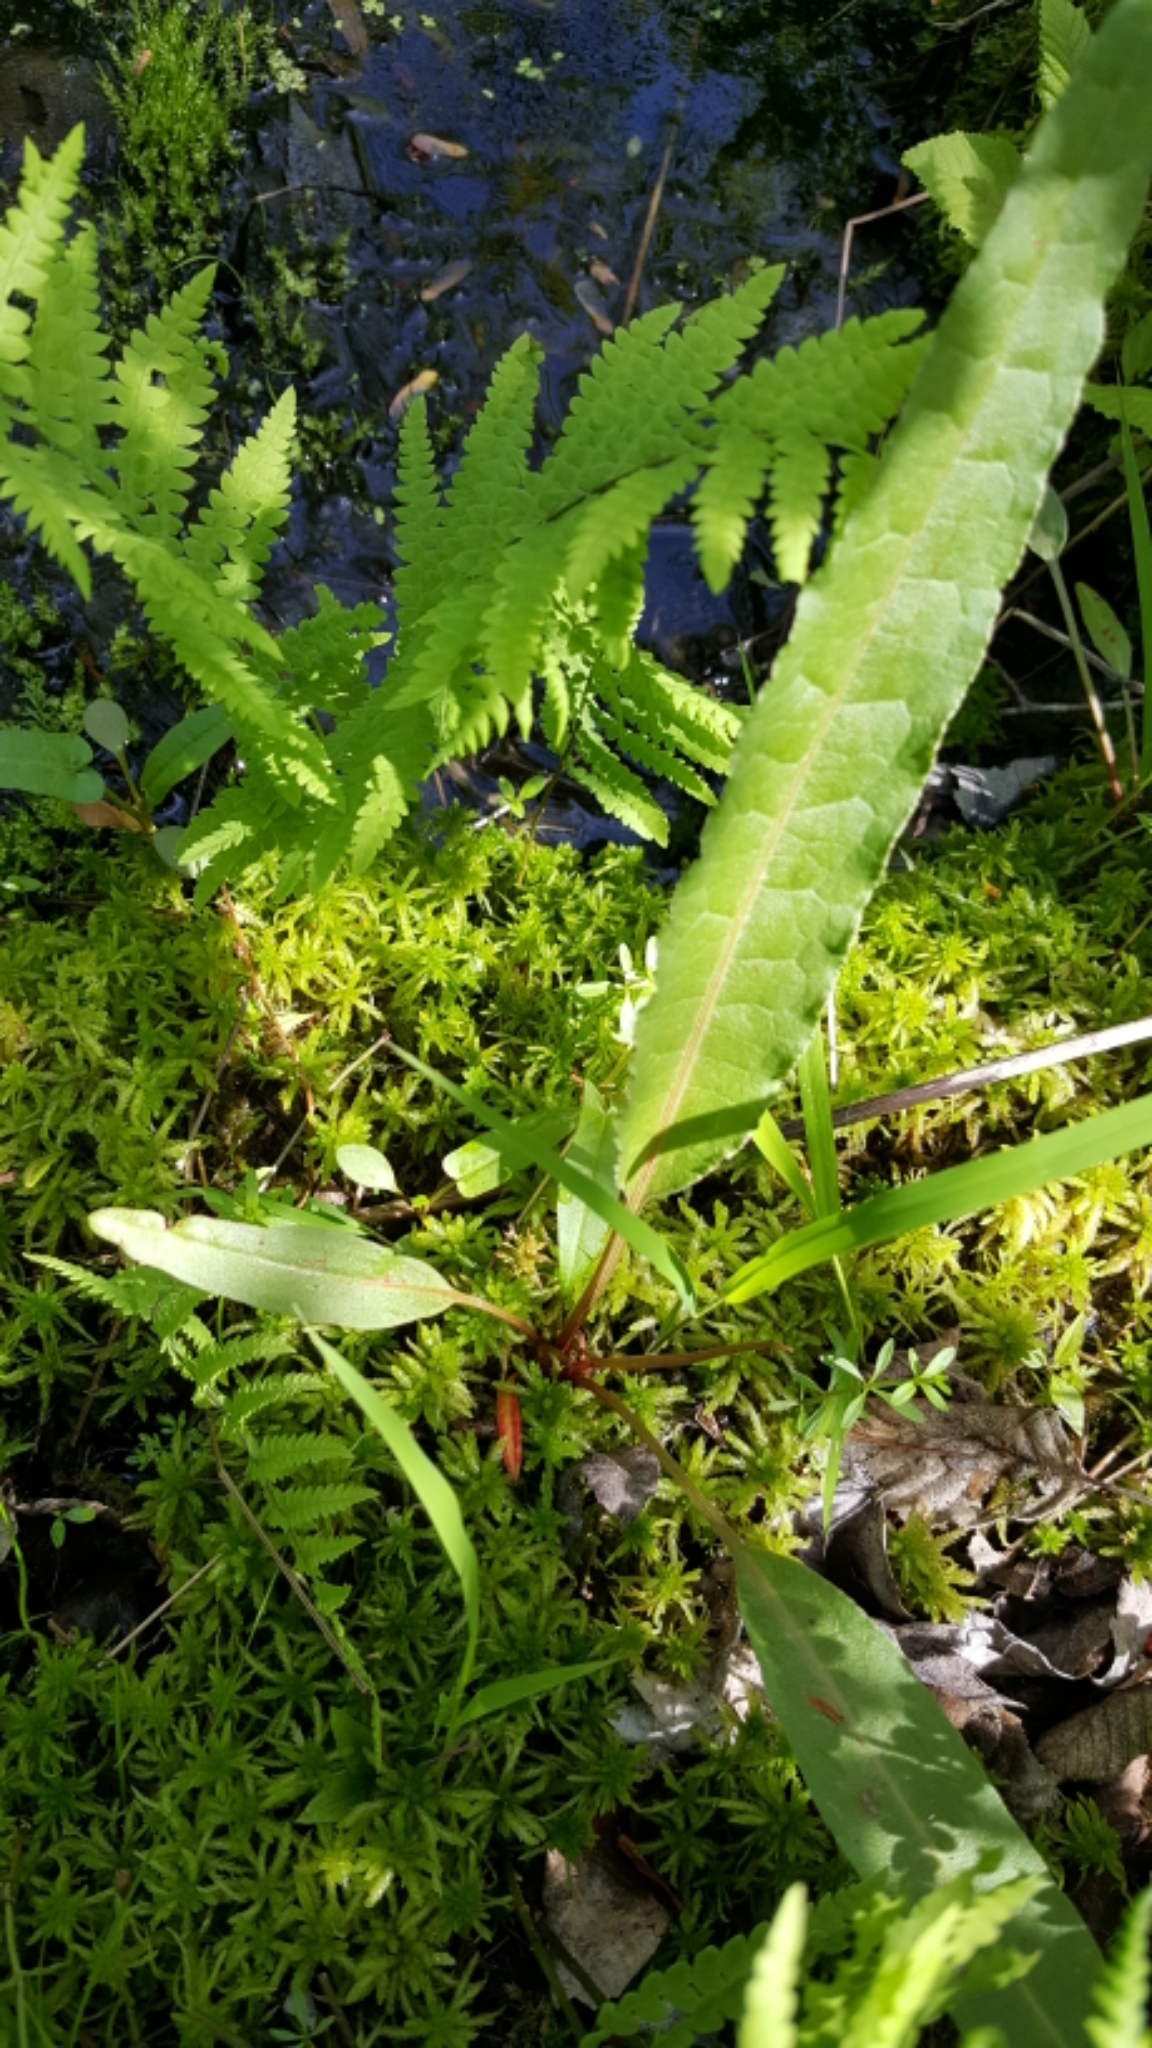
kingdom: Plantae
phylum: Tracheophyta
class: Magnoliopsida
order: Caryophyllales
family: Polygonaceae
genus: Rumex
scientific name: Rumex britannica
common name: British dock
